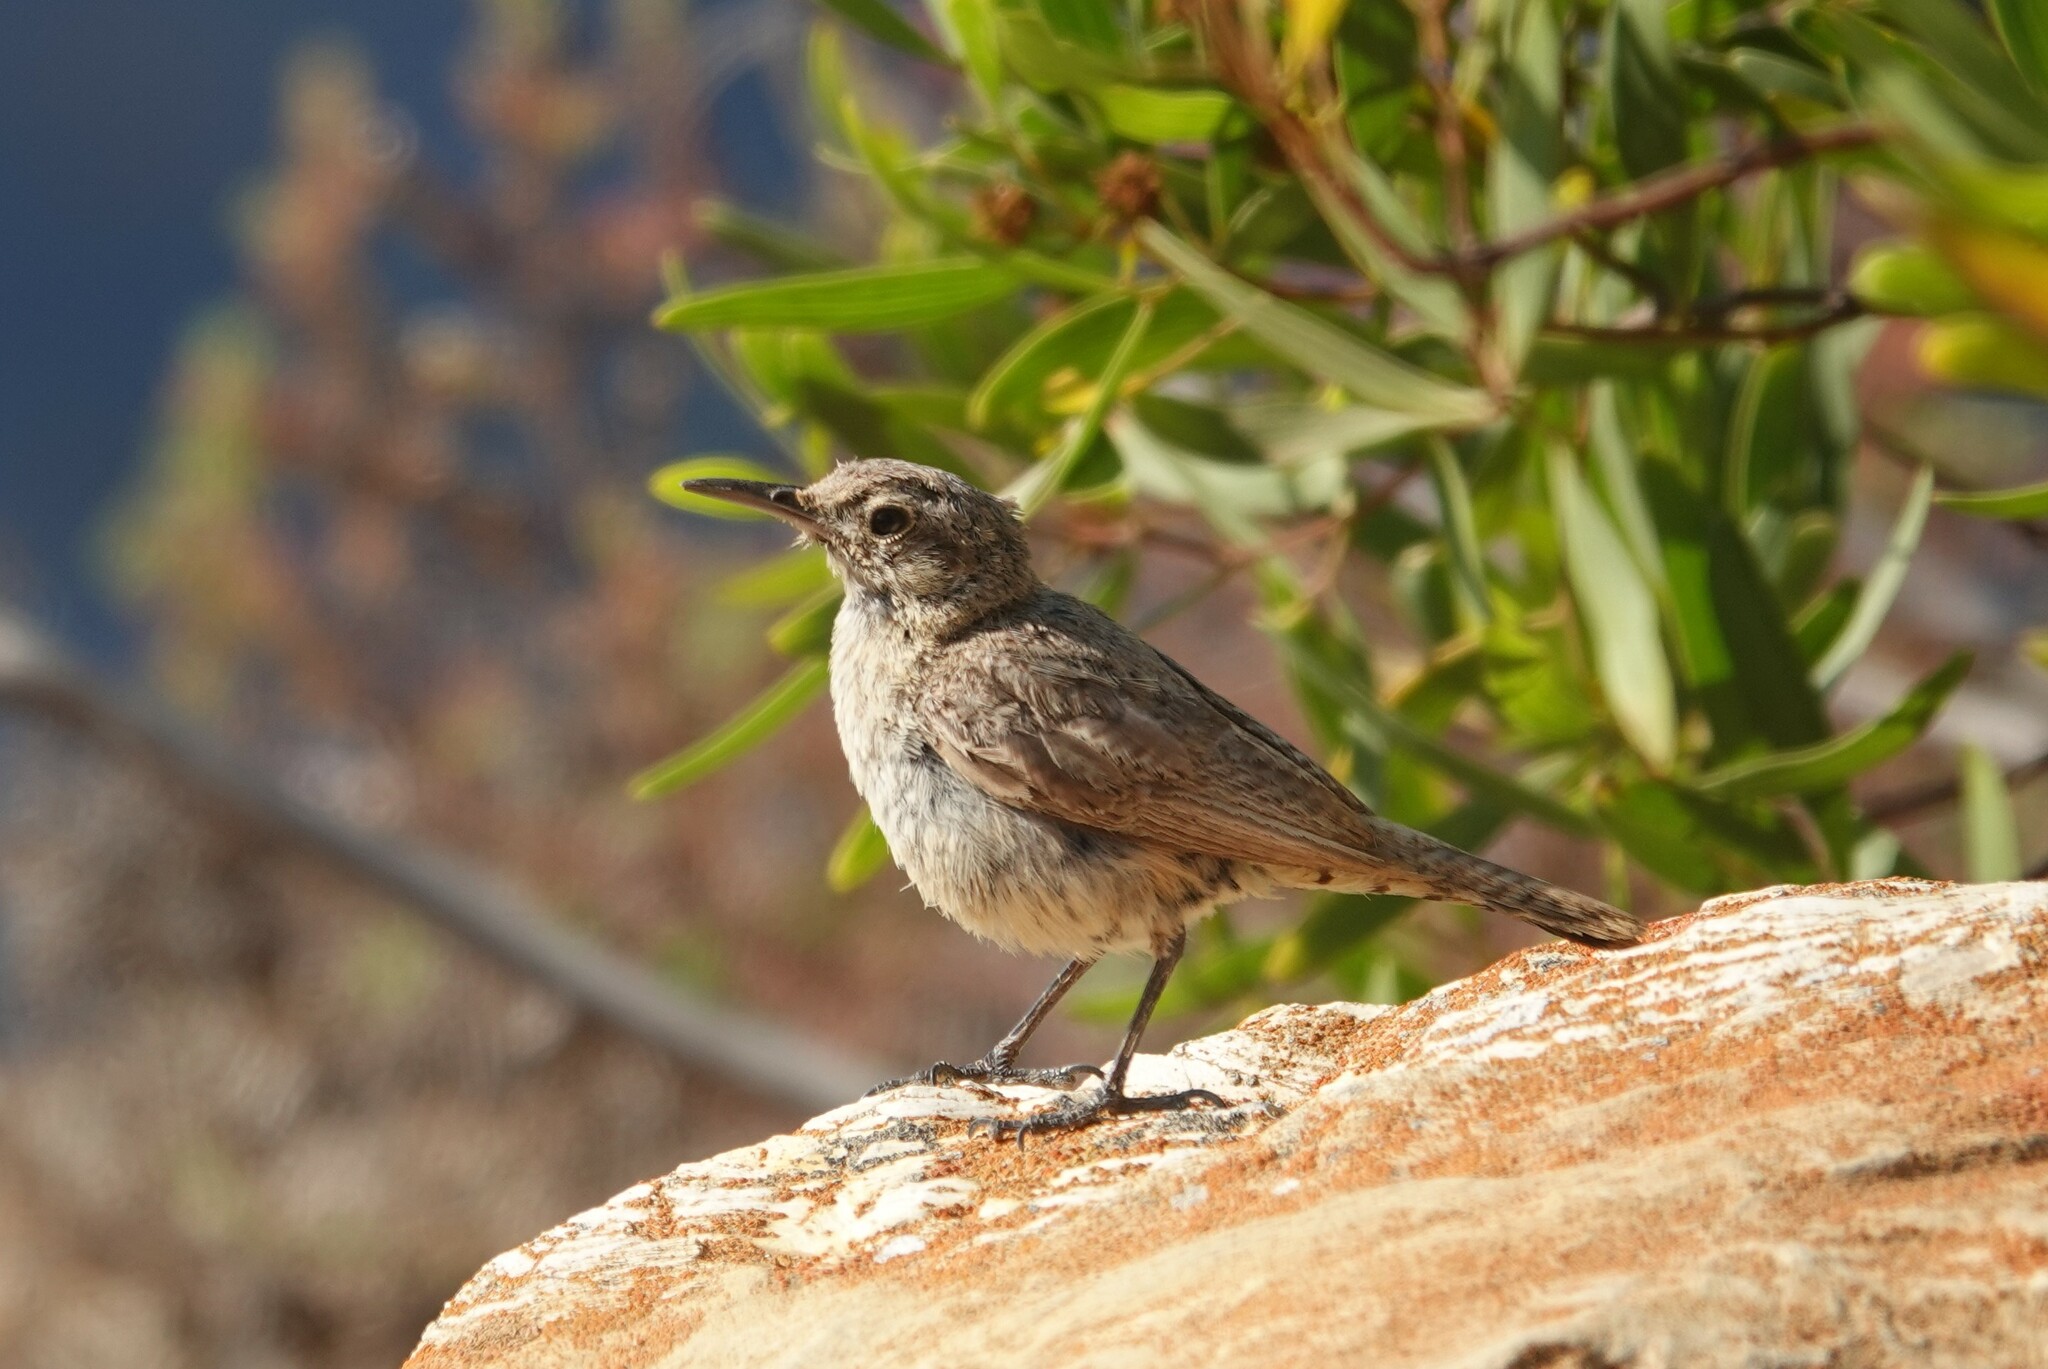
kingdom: Animalia
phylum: Chordata
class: Aves
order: Passeriformes
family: Troglodytidae
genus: Salpinctes
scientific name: Salpinctes obsoletus
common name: Rock wren
